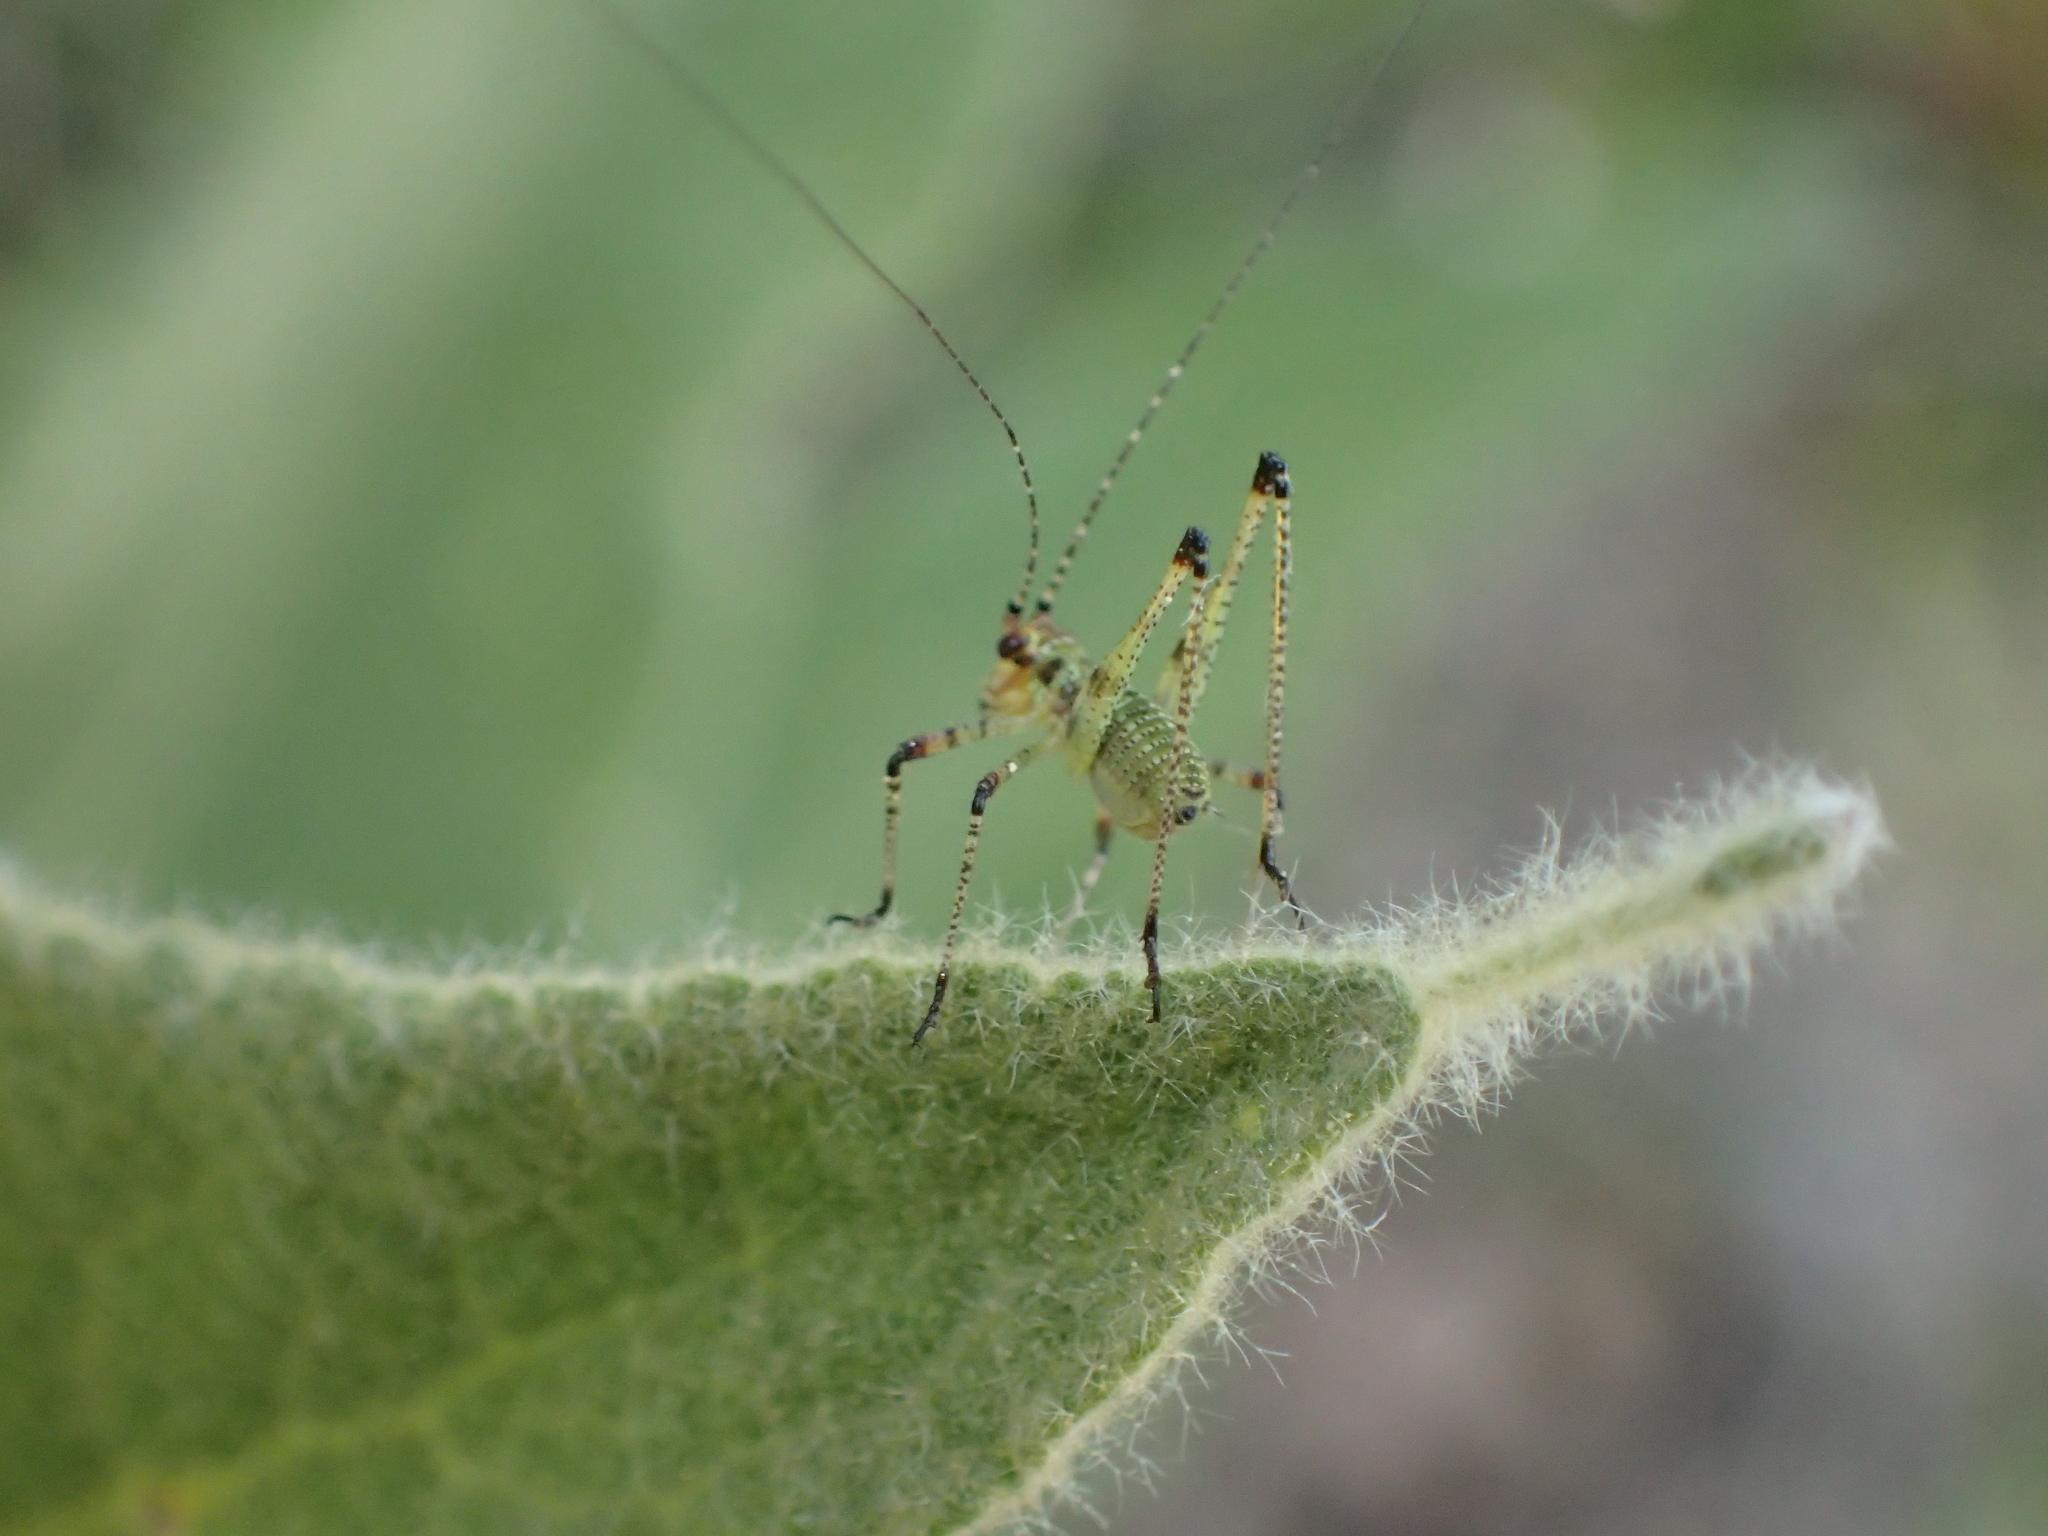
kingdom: Animalia
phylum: Arthropoda
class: Insecta
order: Orthoptera
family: Tettigoniidae
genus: Phaneroptera
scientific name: Phaneroptera nana
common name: Southern sickle bush-cricket
